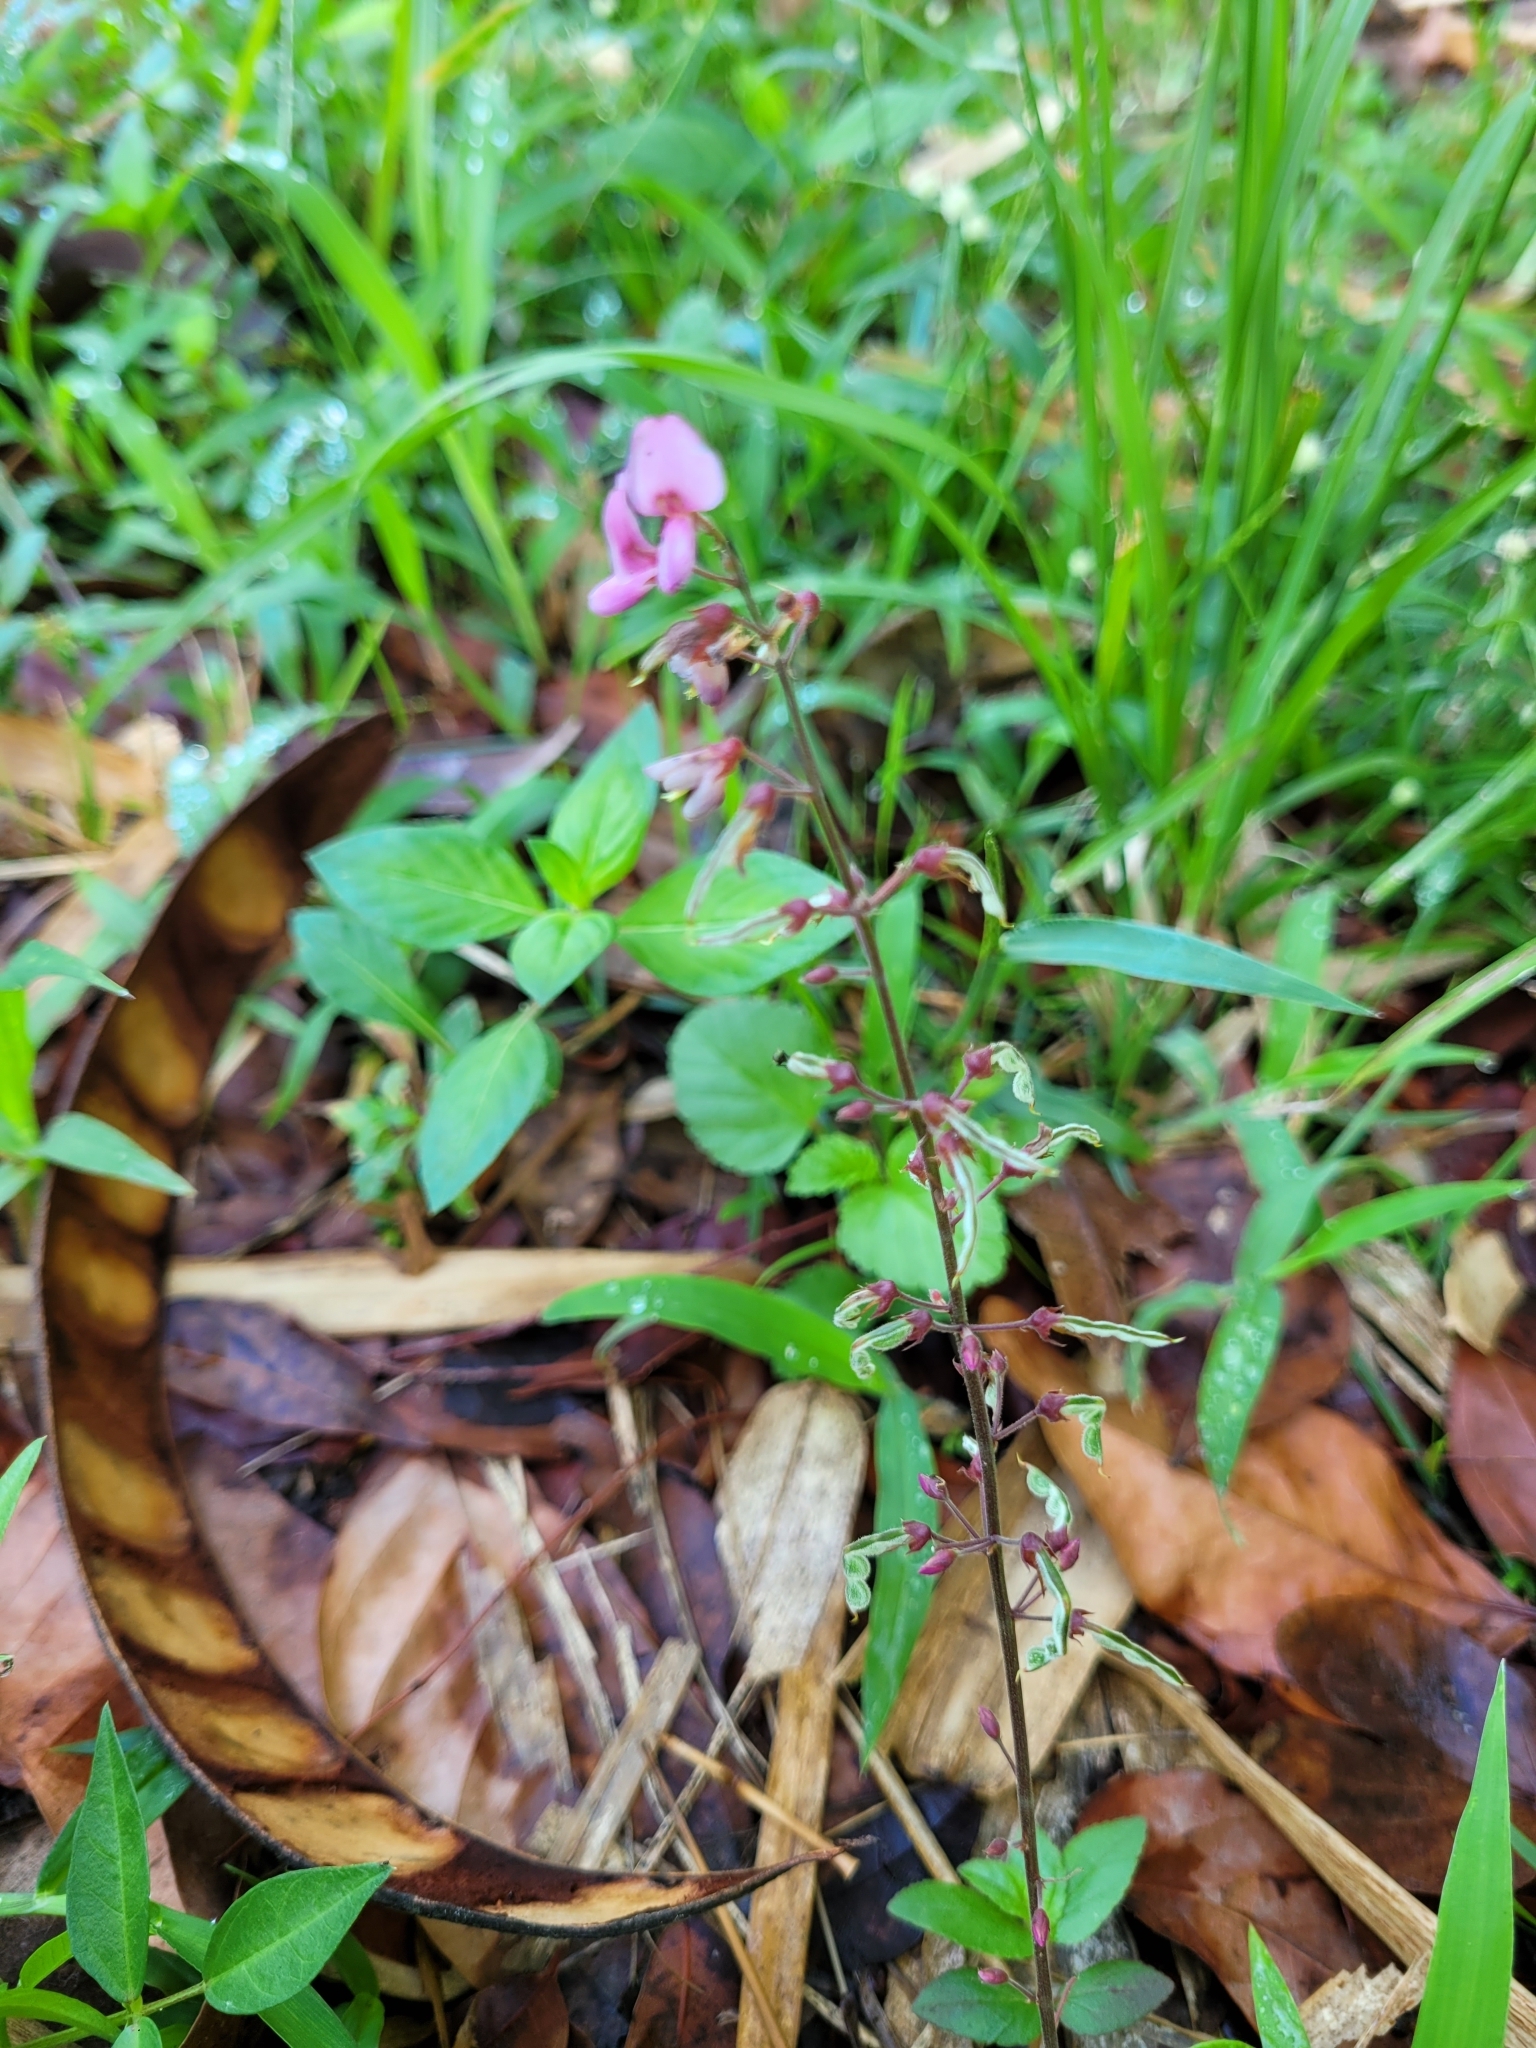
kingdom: Plantae
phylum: Tracheophyta
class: Magnoliopsida
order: Fabales
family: Fabaceae
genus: Desmodium
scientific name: Desmodium incanum
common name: Tickclover
